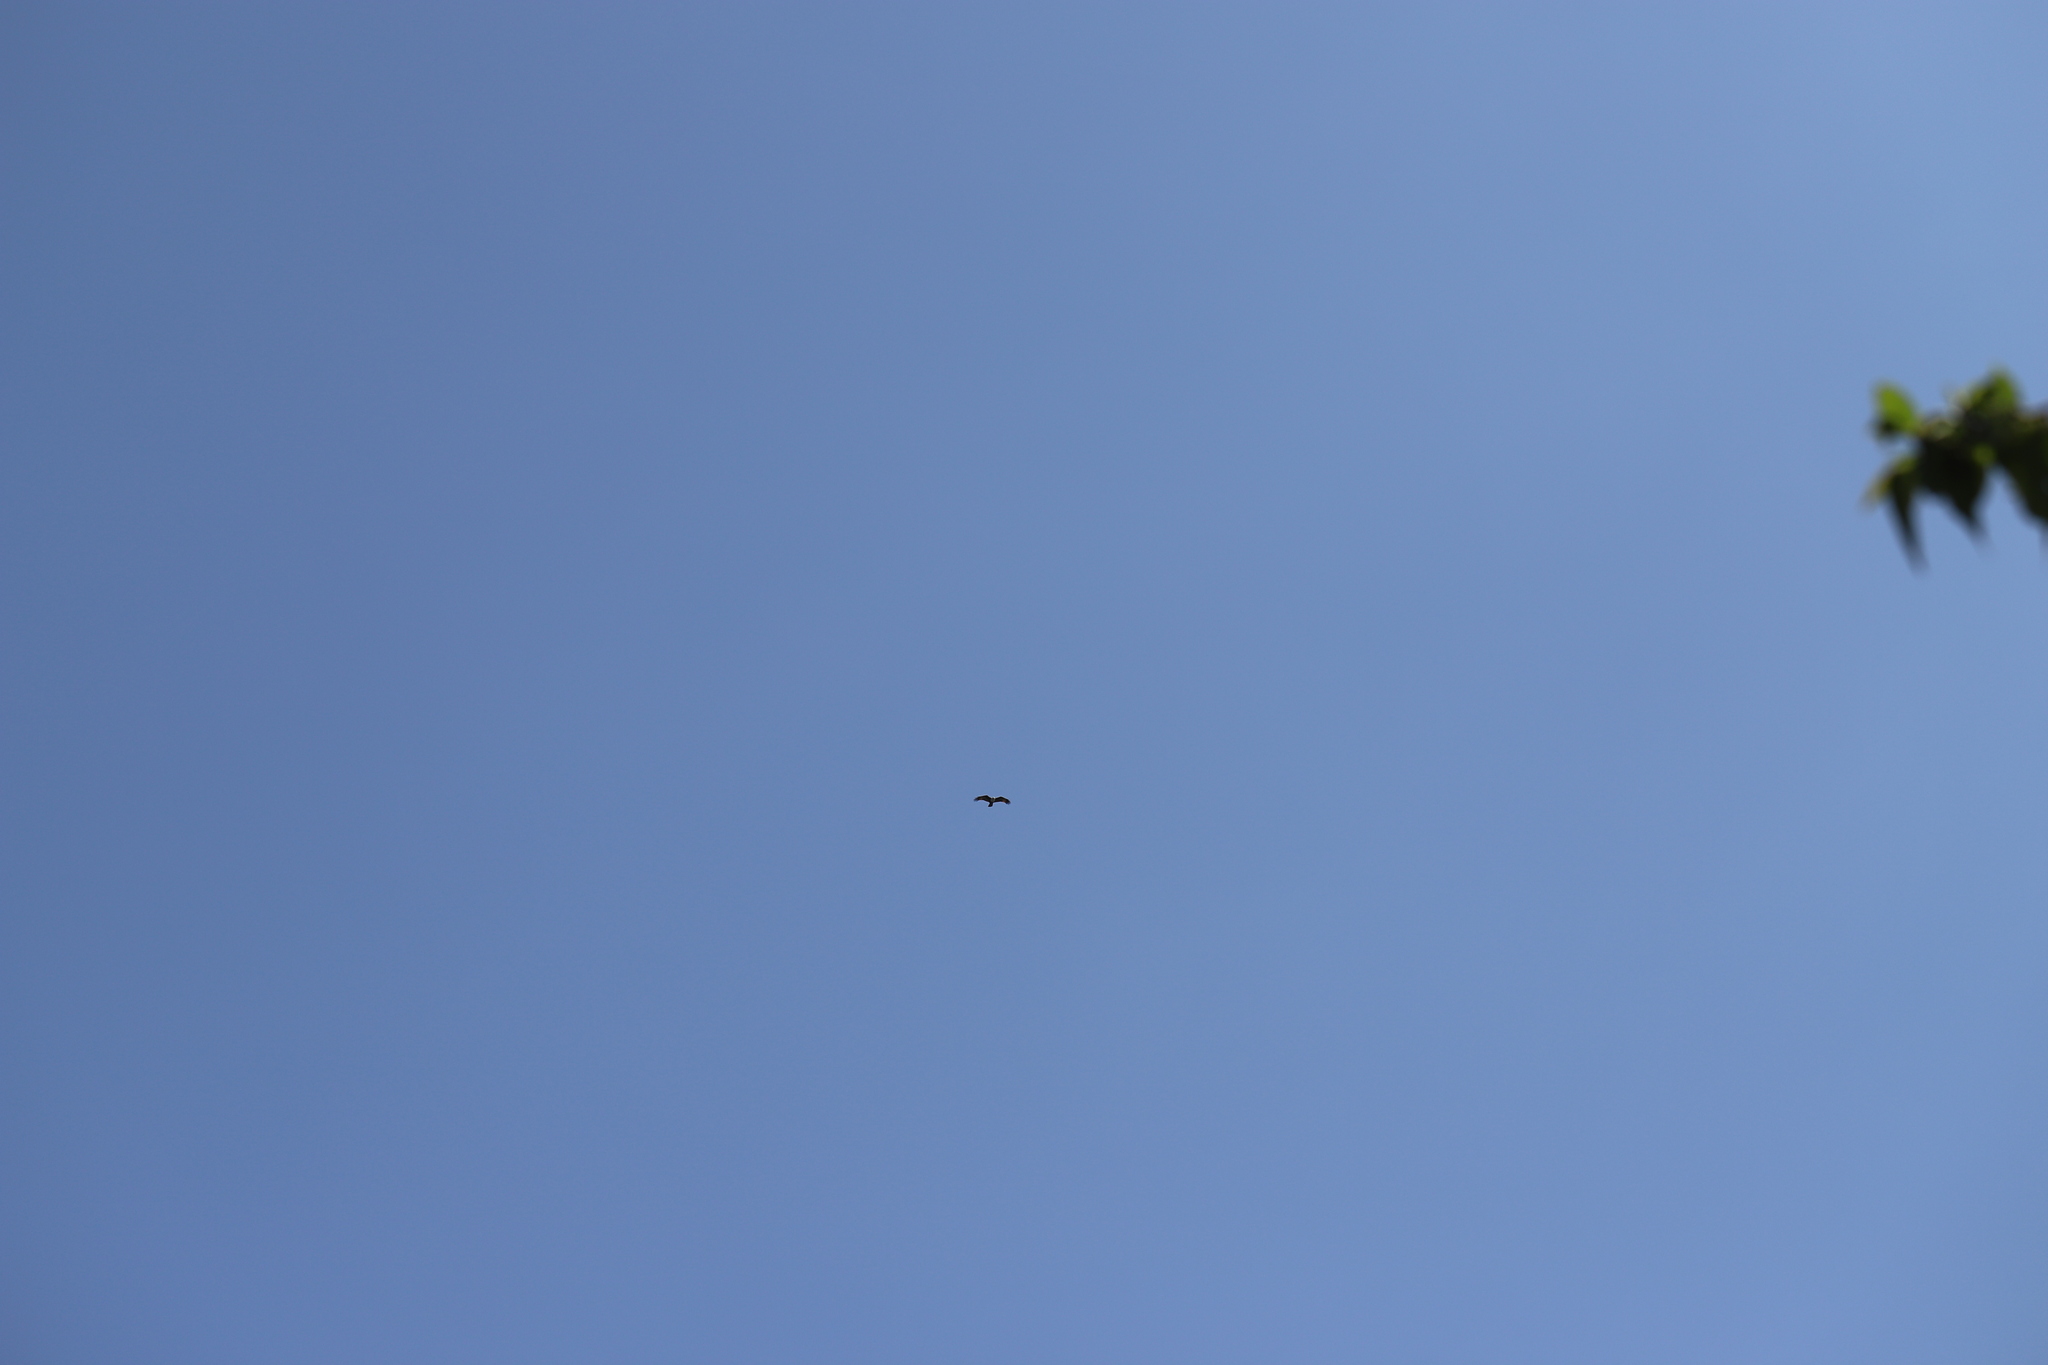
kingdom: Animalia
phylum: Chordata
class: Aves
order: Accipitriformes
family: Accipitridae
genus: Haliastur
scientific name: Haliastur indus
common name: Brahminy kite
